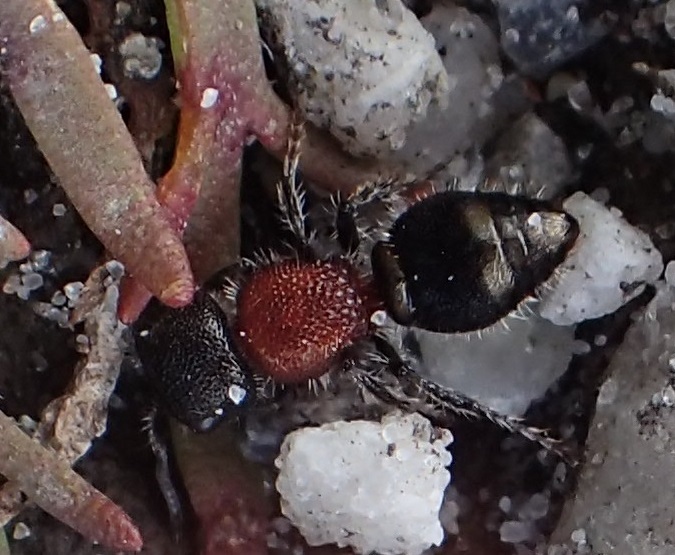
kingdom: Animalia
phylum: Arthropoda
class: Insecta
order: Hymenoptera
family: Mutillidae
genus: Ephutomorpha
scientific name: Ephutomorpha
